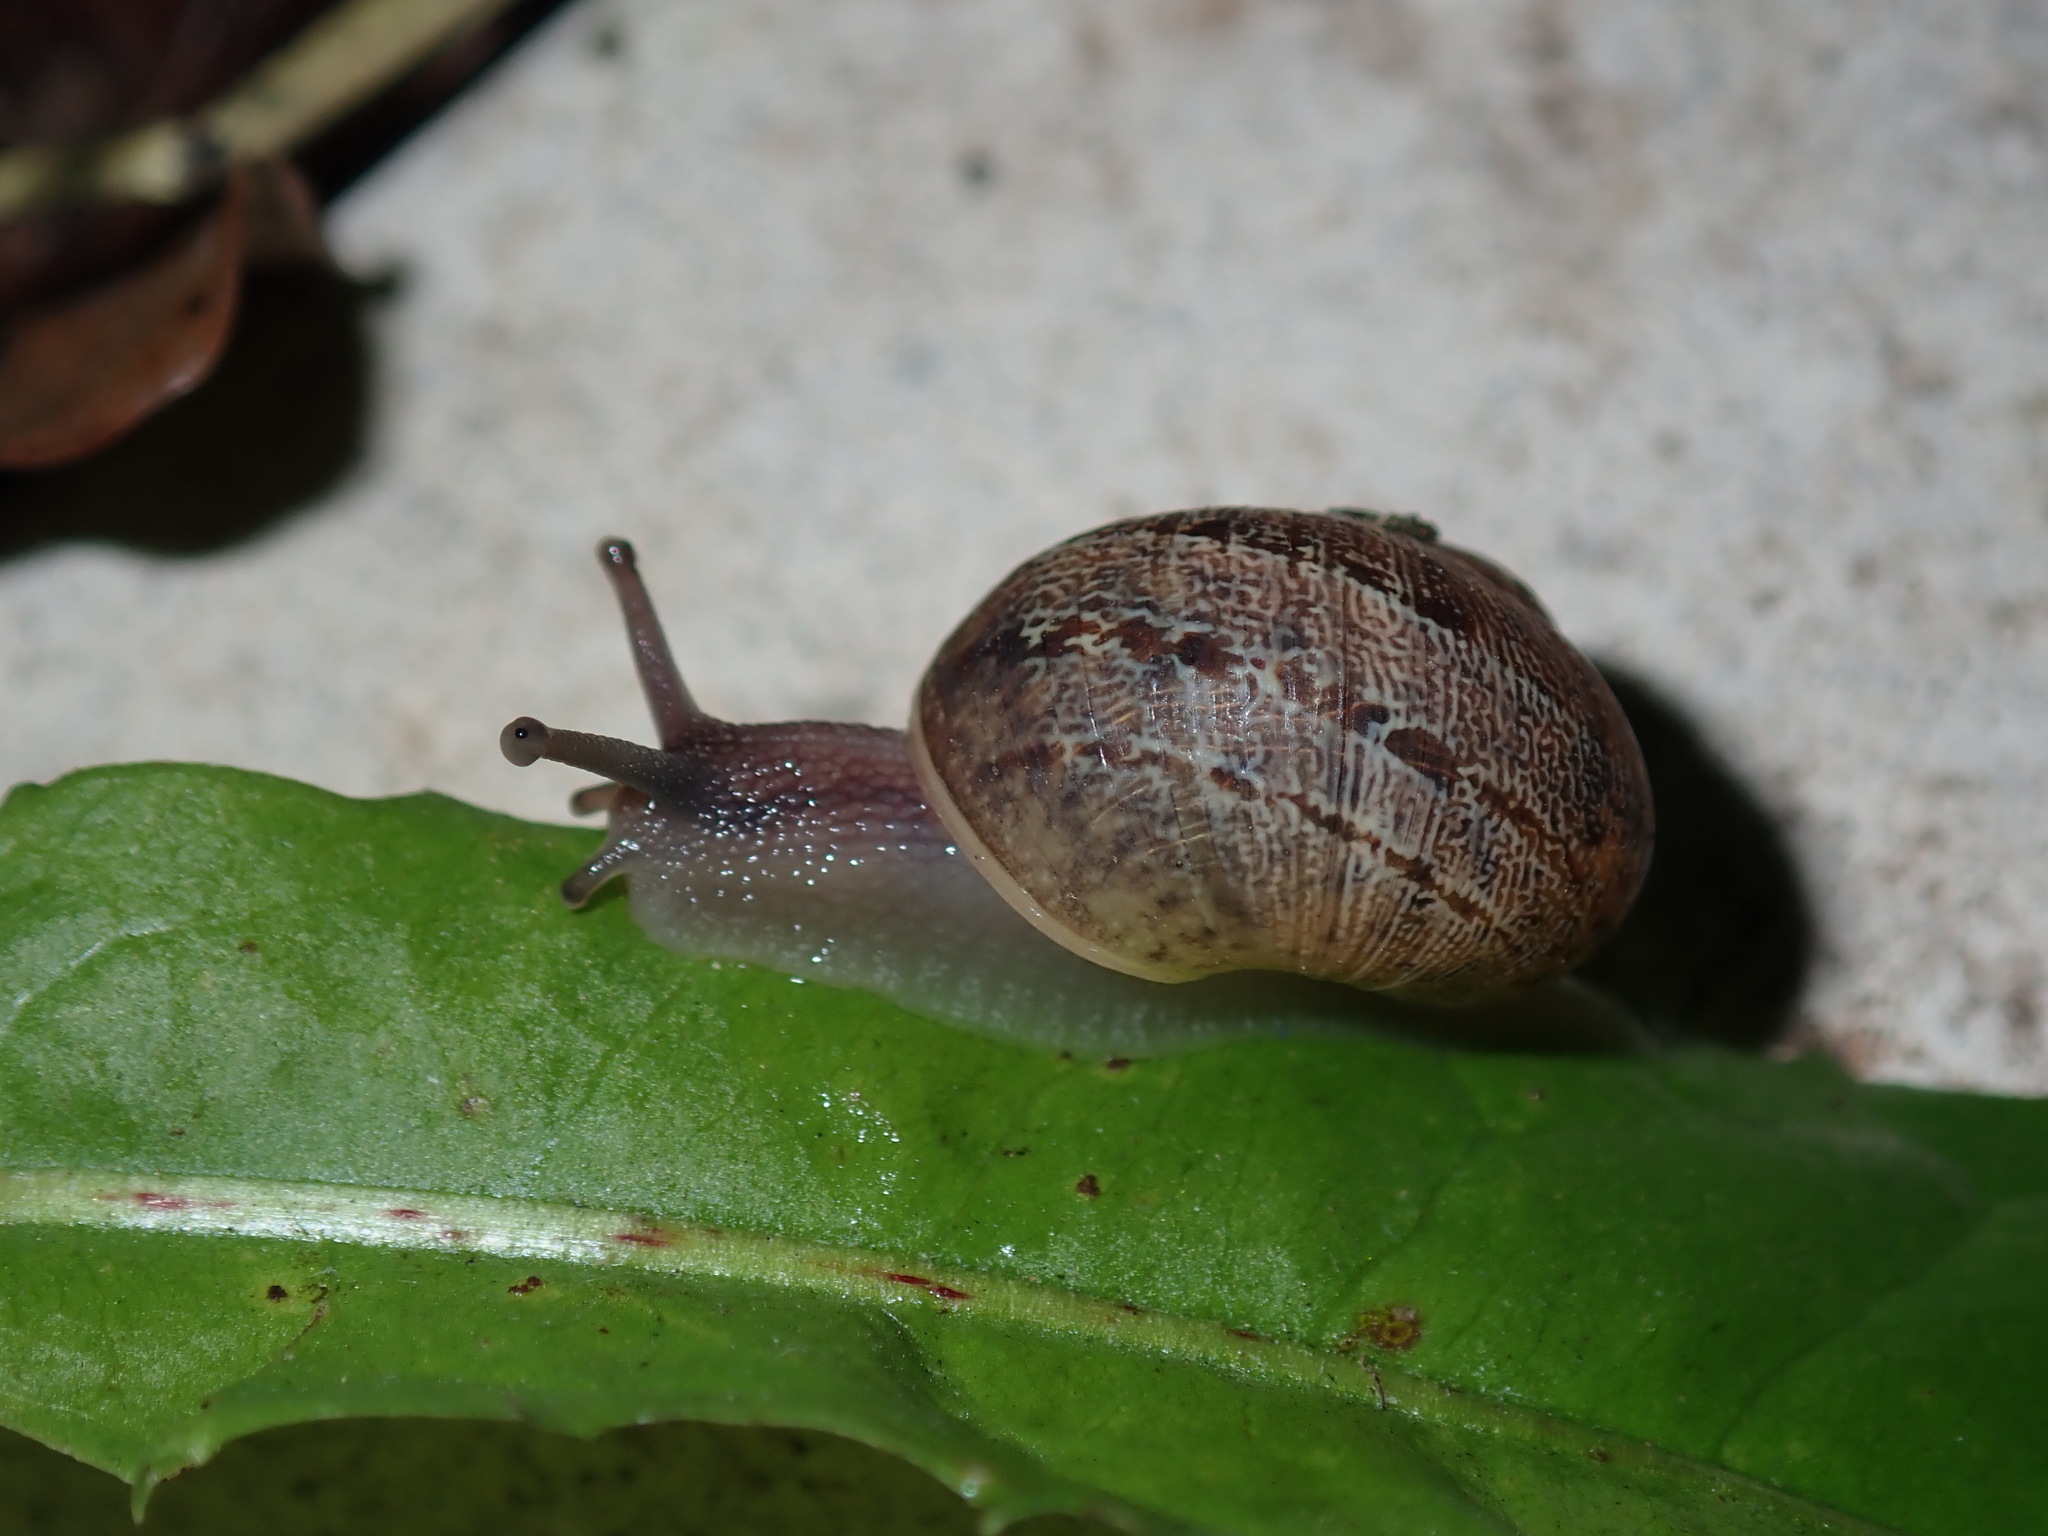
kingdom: Animalia
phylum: Mollusca
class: Gastropoda
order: Stylommatophora
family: Helicidae
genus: Cornu
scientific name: Cornu aspersum
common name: Brown garden snail
